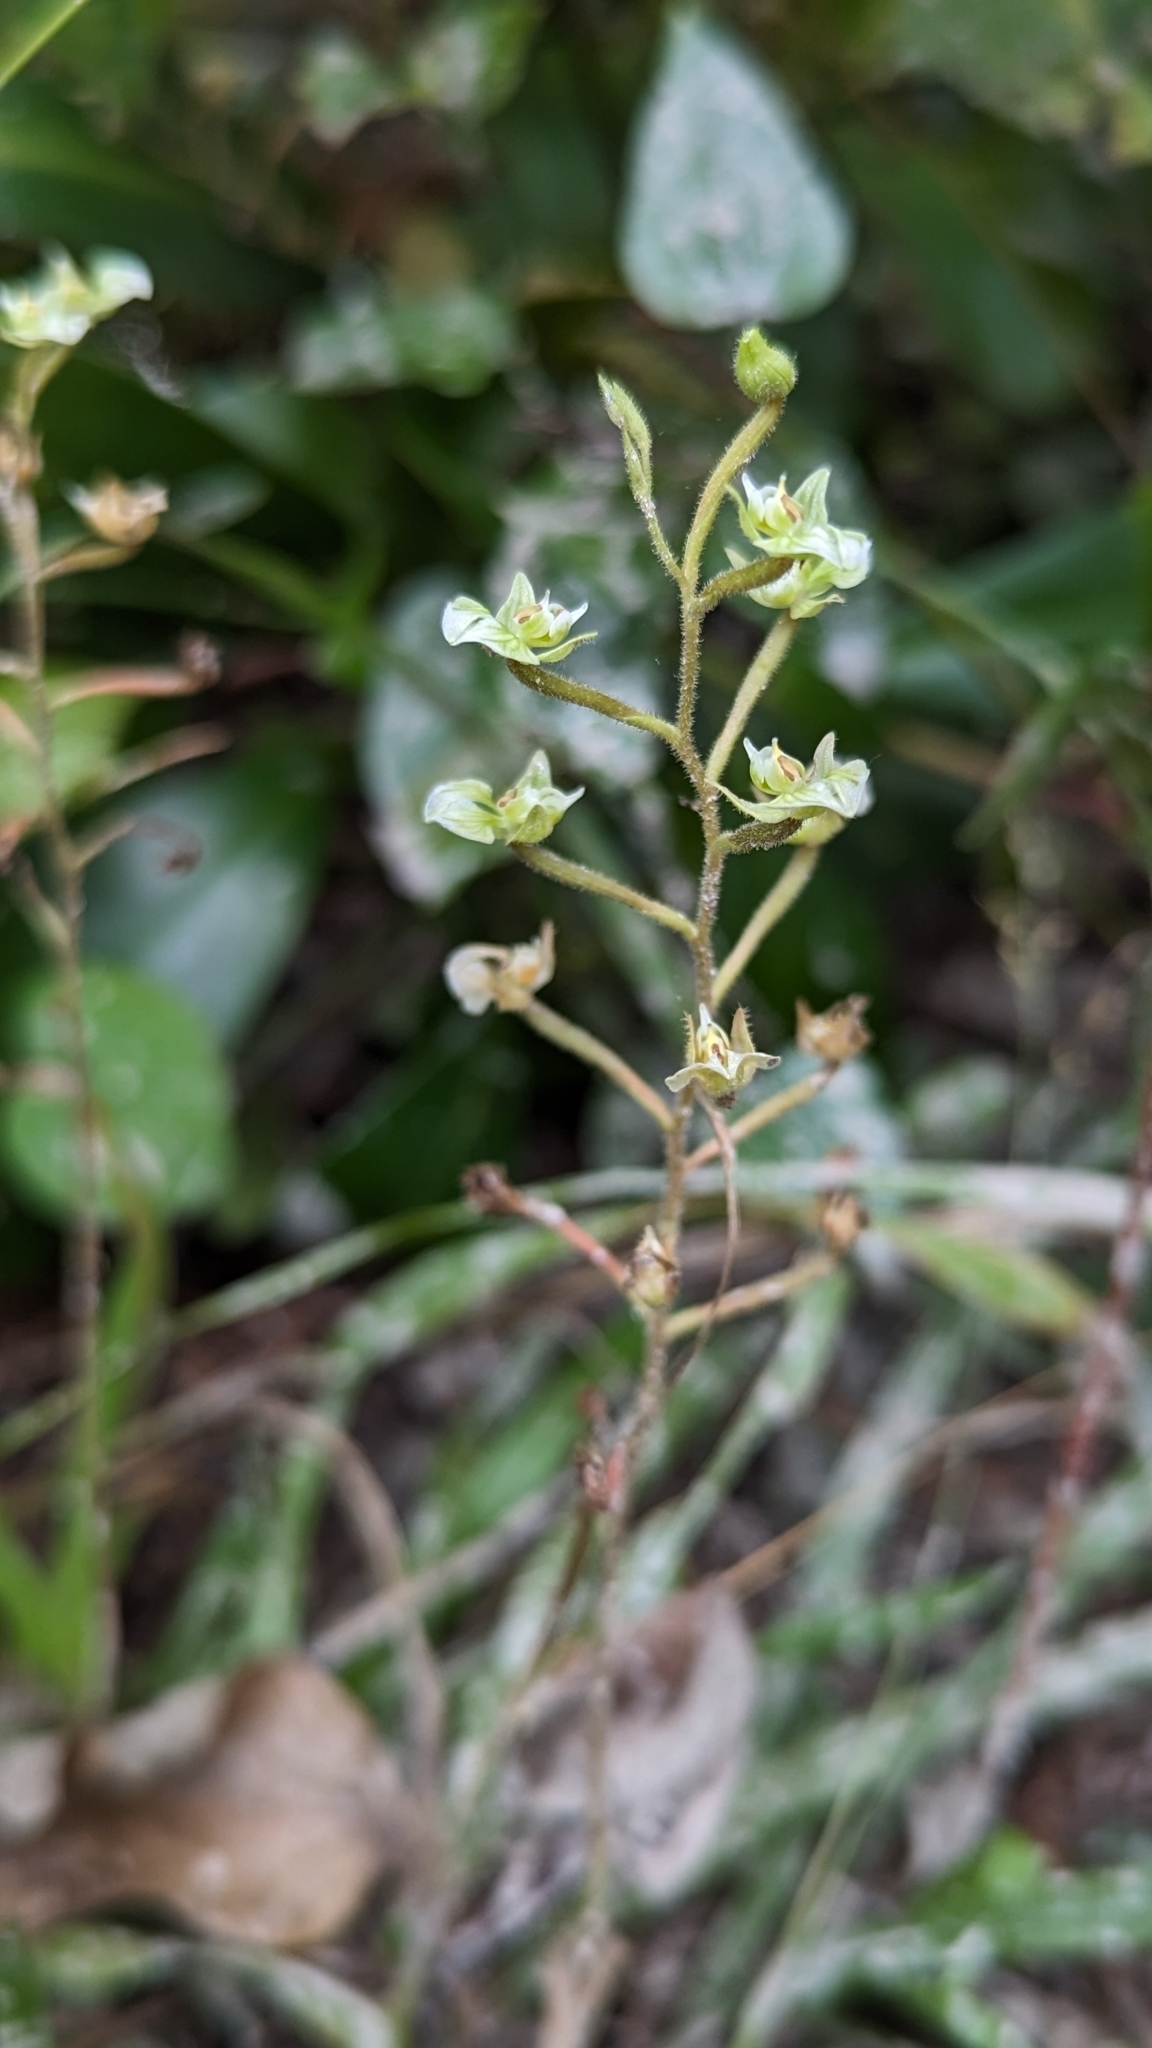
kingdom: Plantae
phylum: Tracheophyta
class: Liliopsida
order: Asparagales
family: Orchidaceae
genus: Ponthieva
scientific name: Ponthieva racemosa
